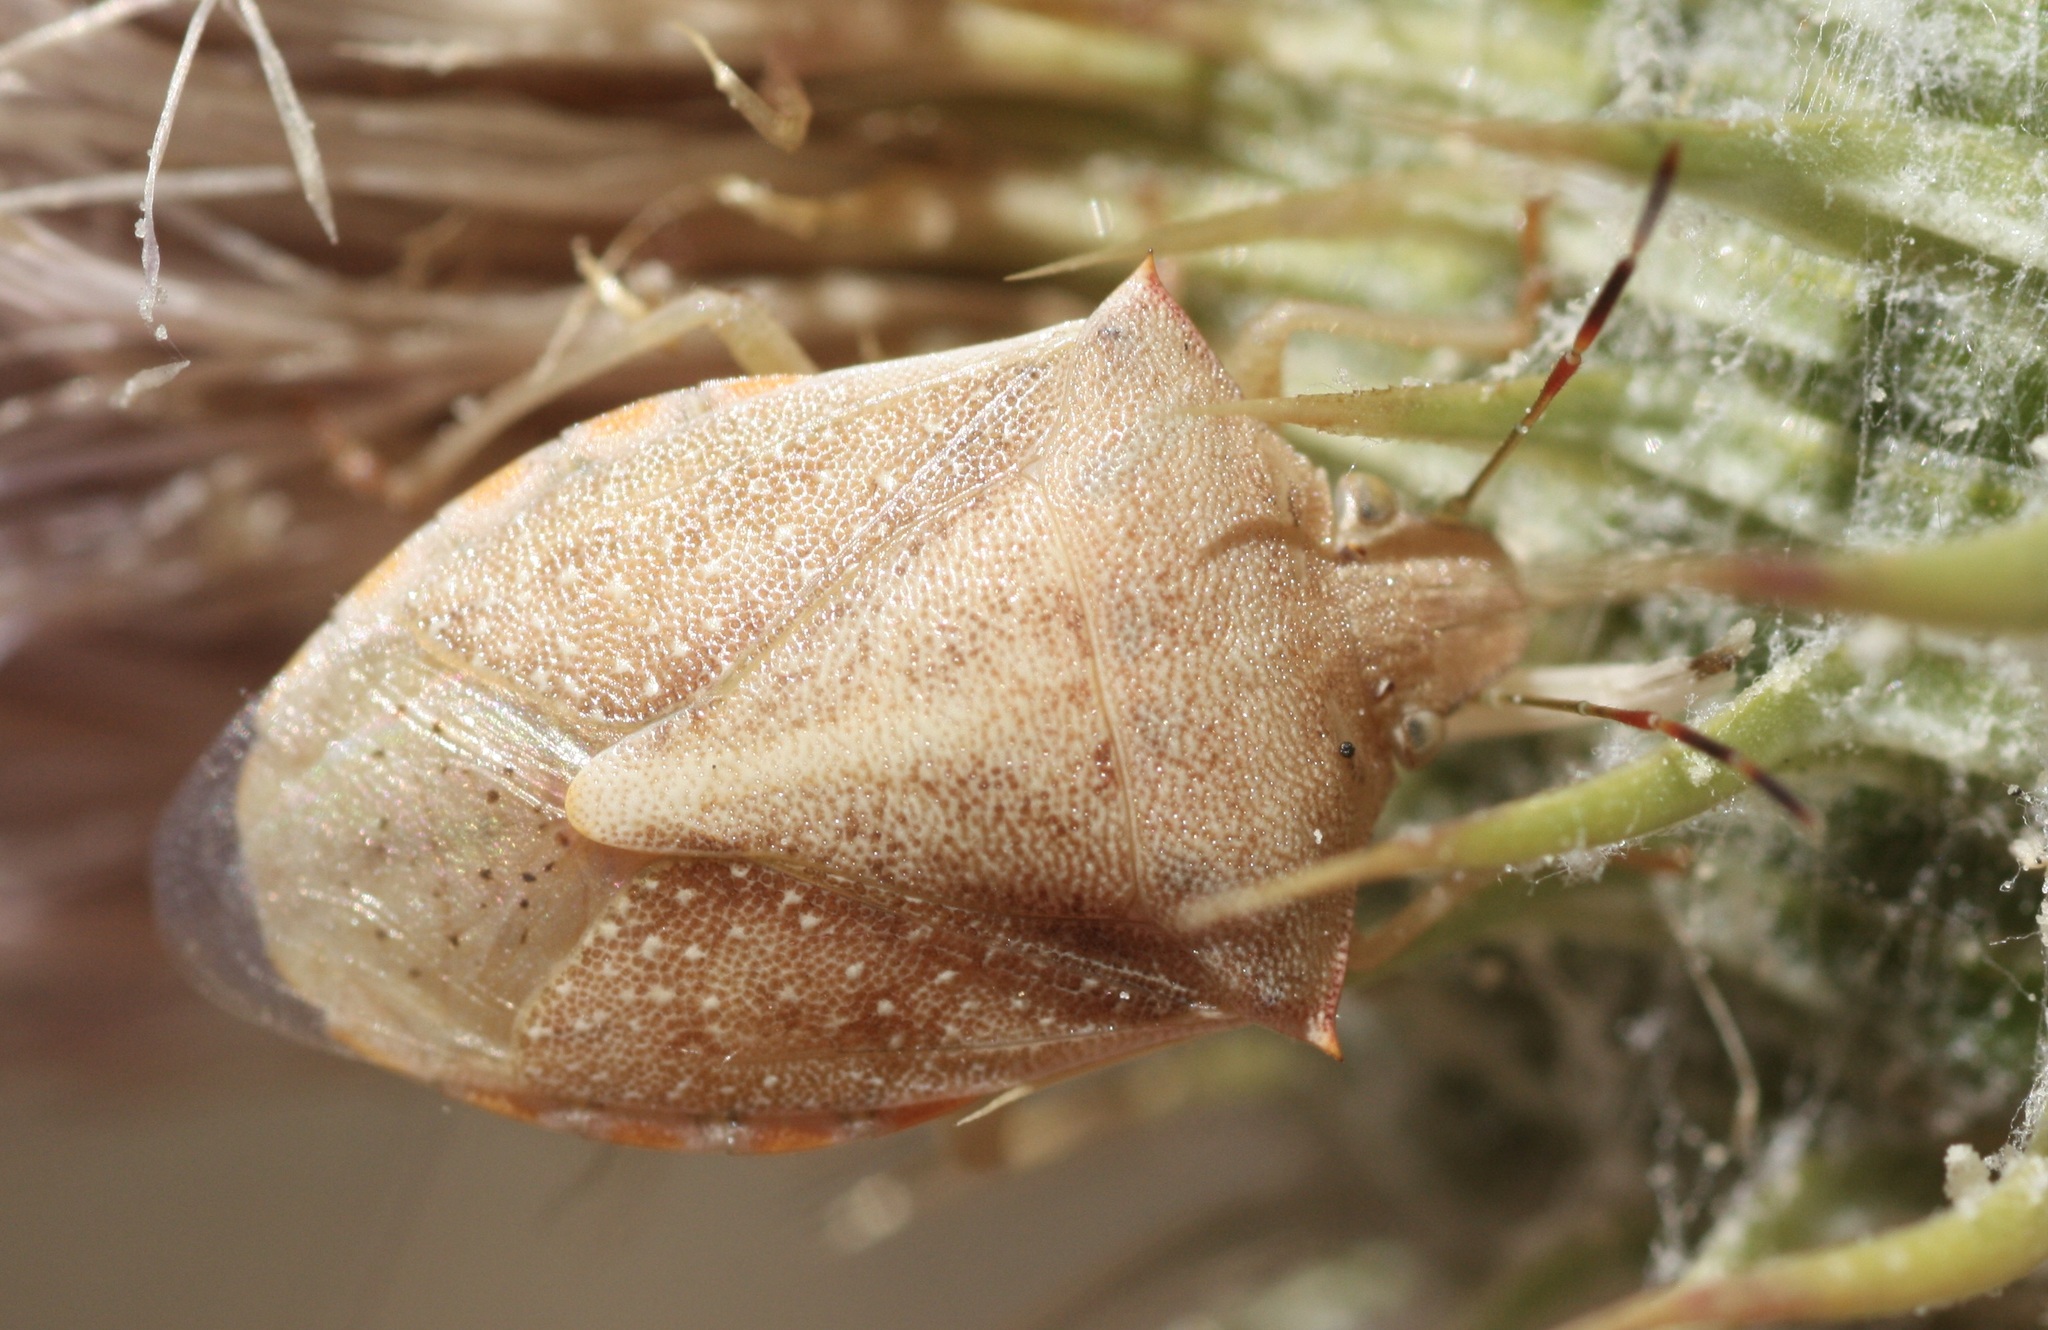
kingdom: Animalia
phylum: Arthropoda
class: Insecta
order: Hemiptera
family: Pentatomidae
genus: Thyanta
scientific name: Thyanta accerra
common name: Stink bug
